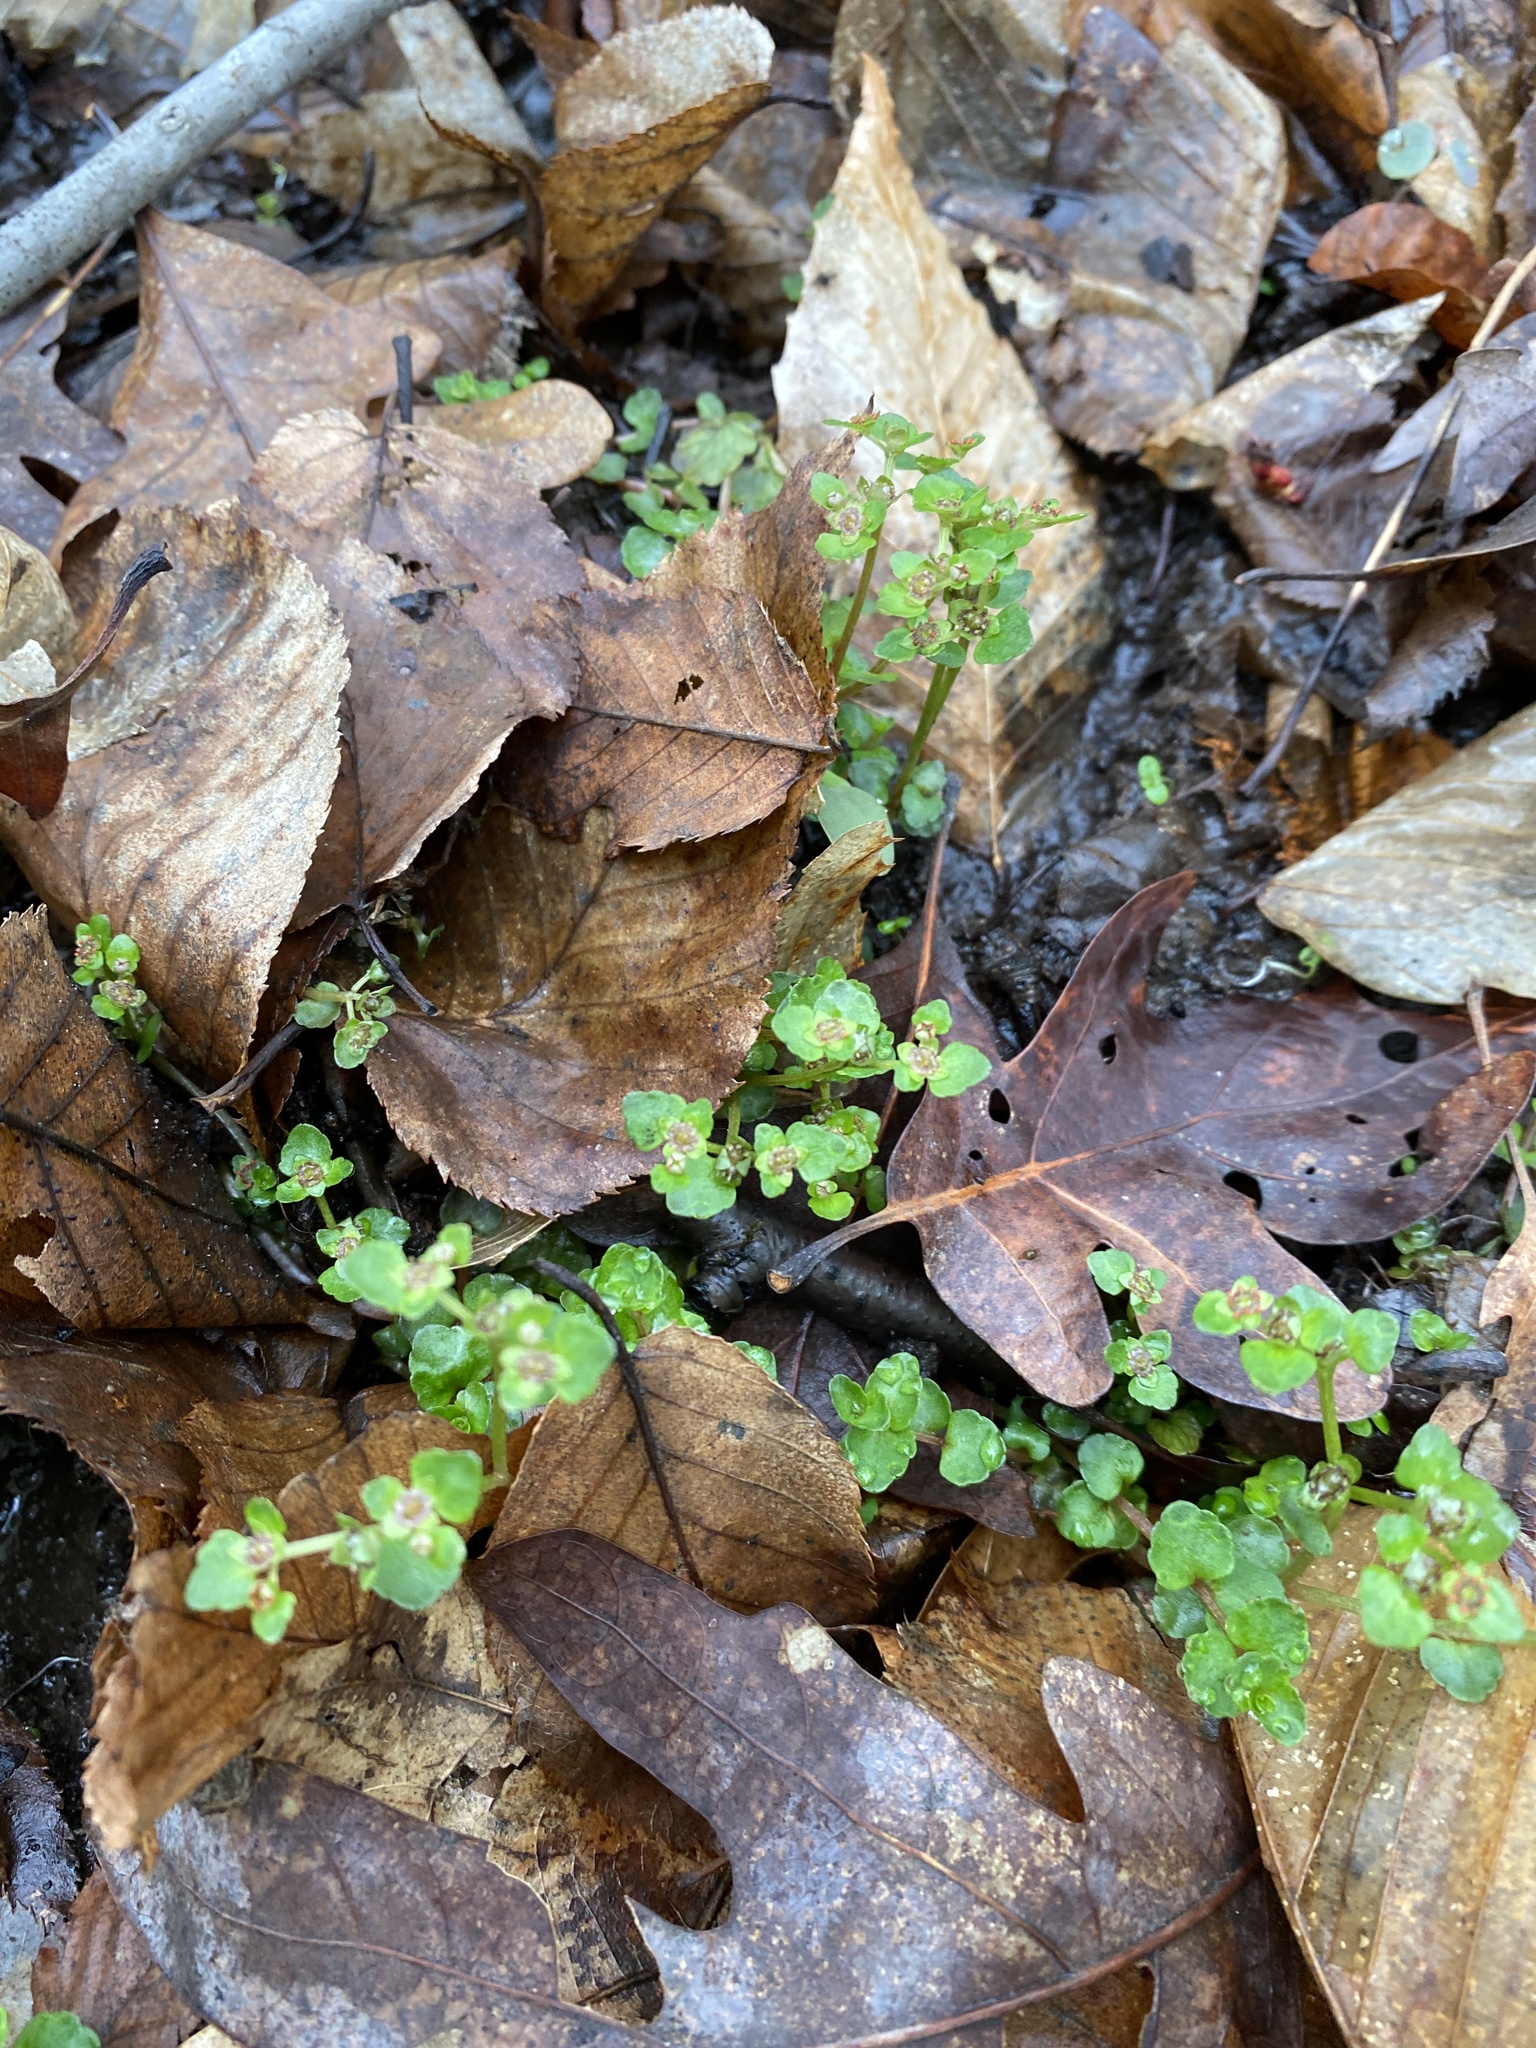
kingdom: Plantae
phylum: Tracheophyta
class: Magnoliopsida
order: Saxifragales
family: Saxifragaceae
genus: Chrysosplenium
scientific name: Chrysosplenium americanum
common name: American golden-saxifrage
